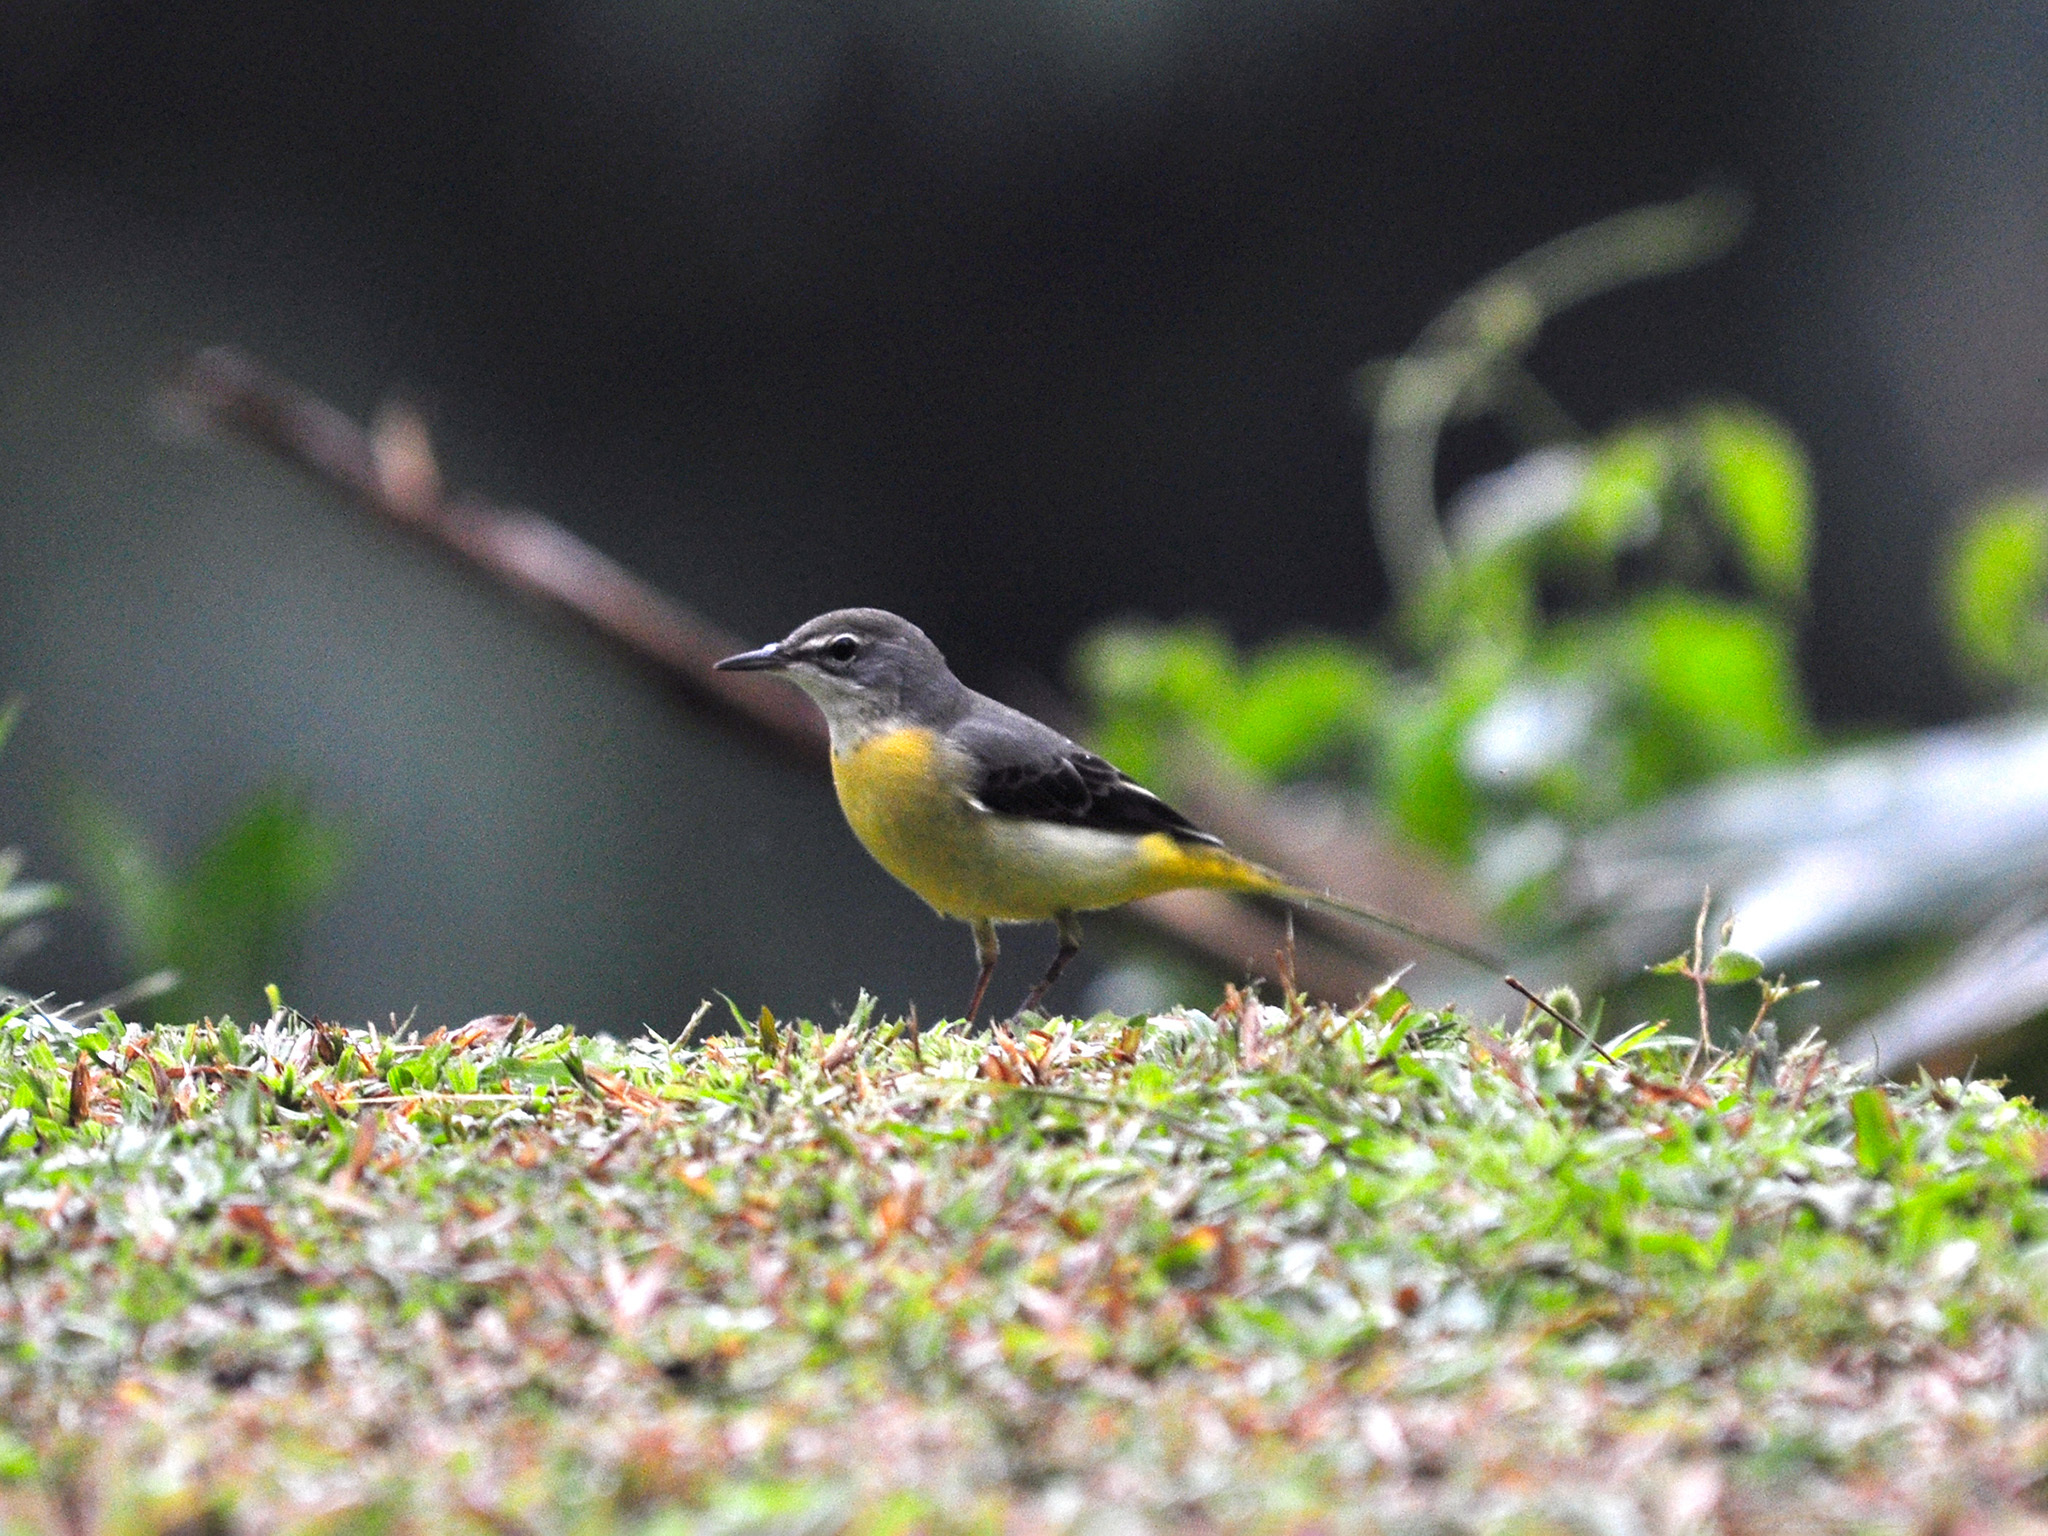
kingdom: Animalia
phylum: Chordata
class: Aves
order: Passeriformes
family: Motacillidae
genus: Motacilla
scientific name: Motacilla cinerea
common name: Grey wagtail
